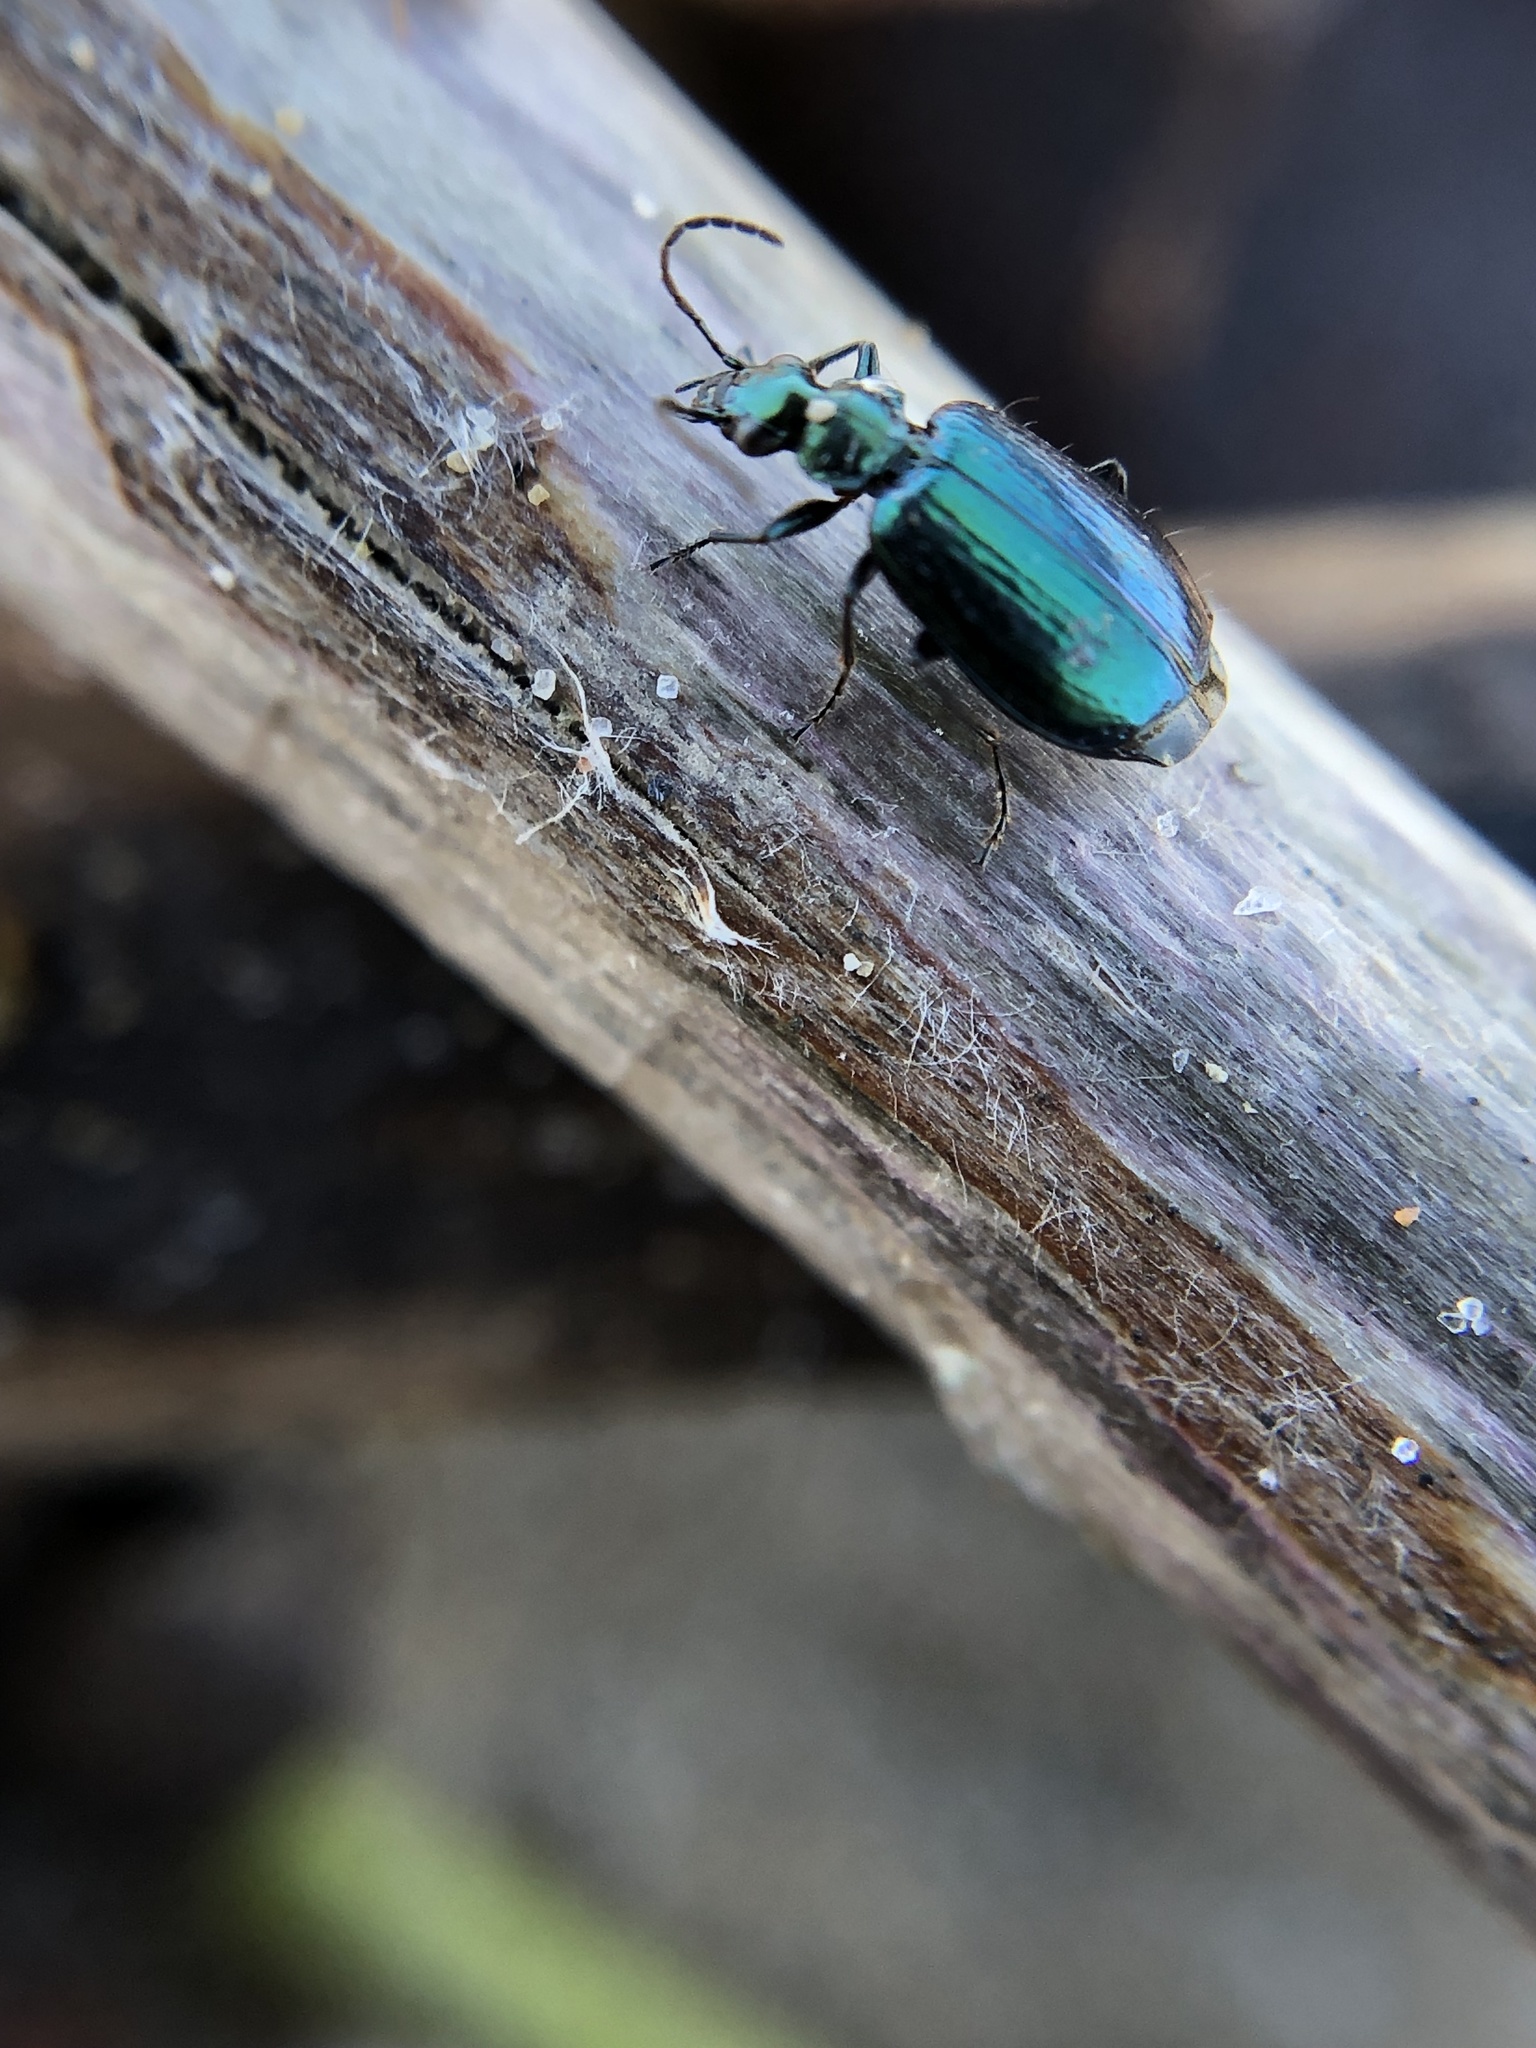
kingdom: Animalia
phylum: Arthropoda
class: Insecta
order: Coleoptera
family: Carabidae
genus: Lebia
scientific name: Lebia viridis
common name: Flower lebia beetle
